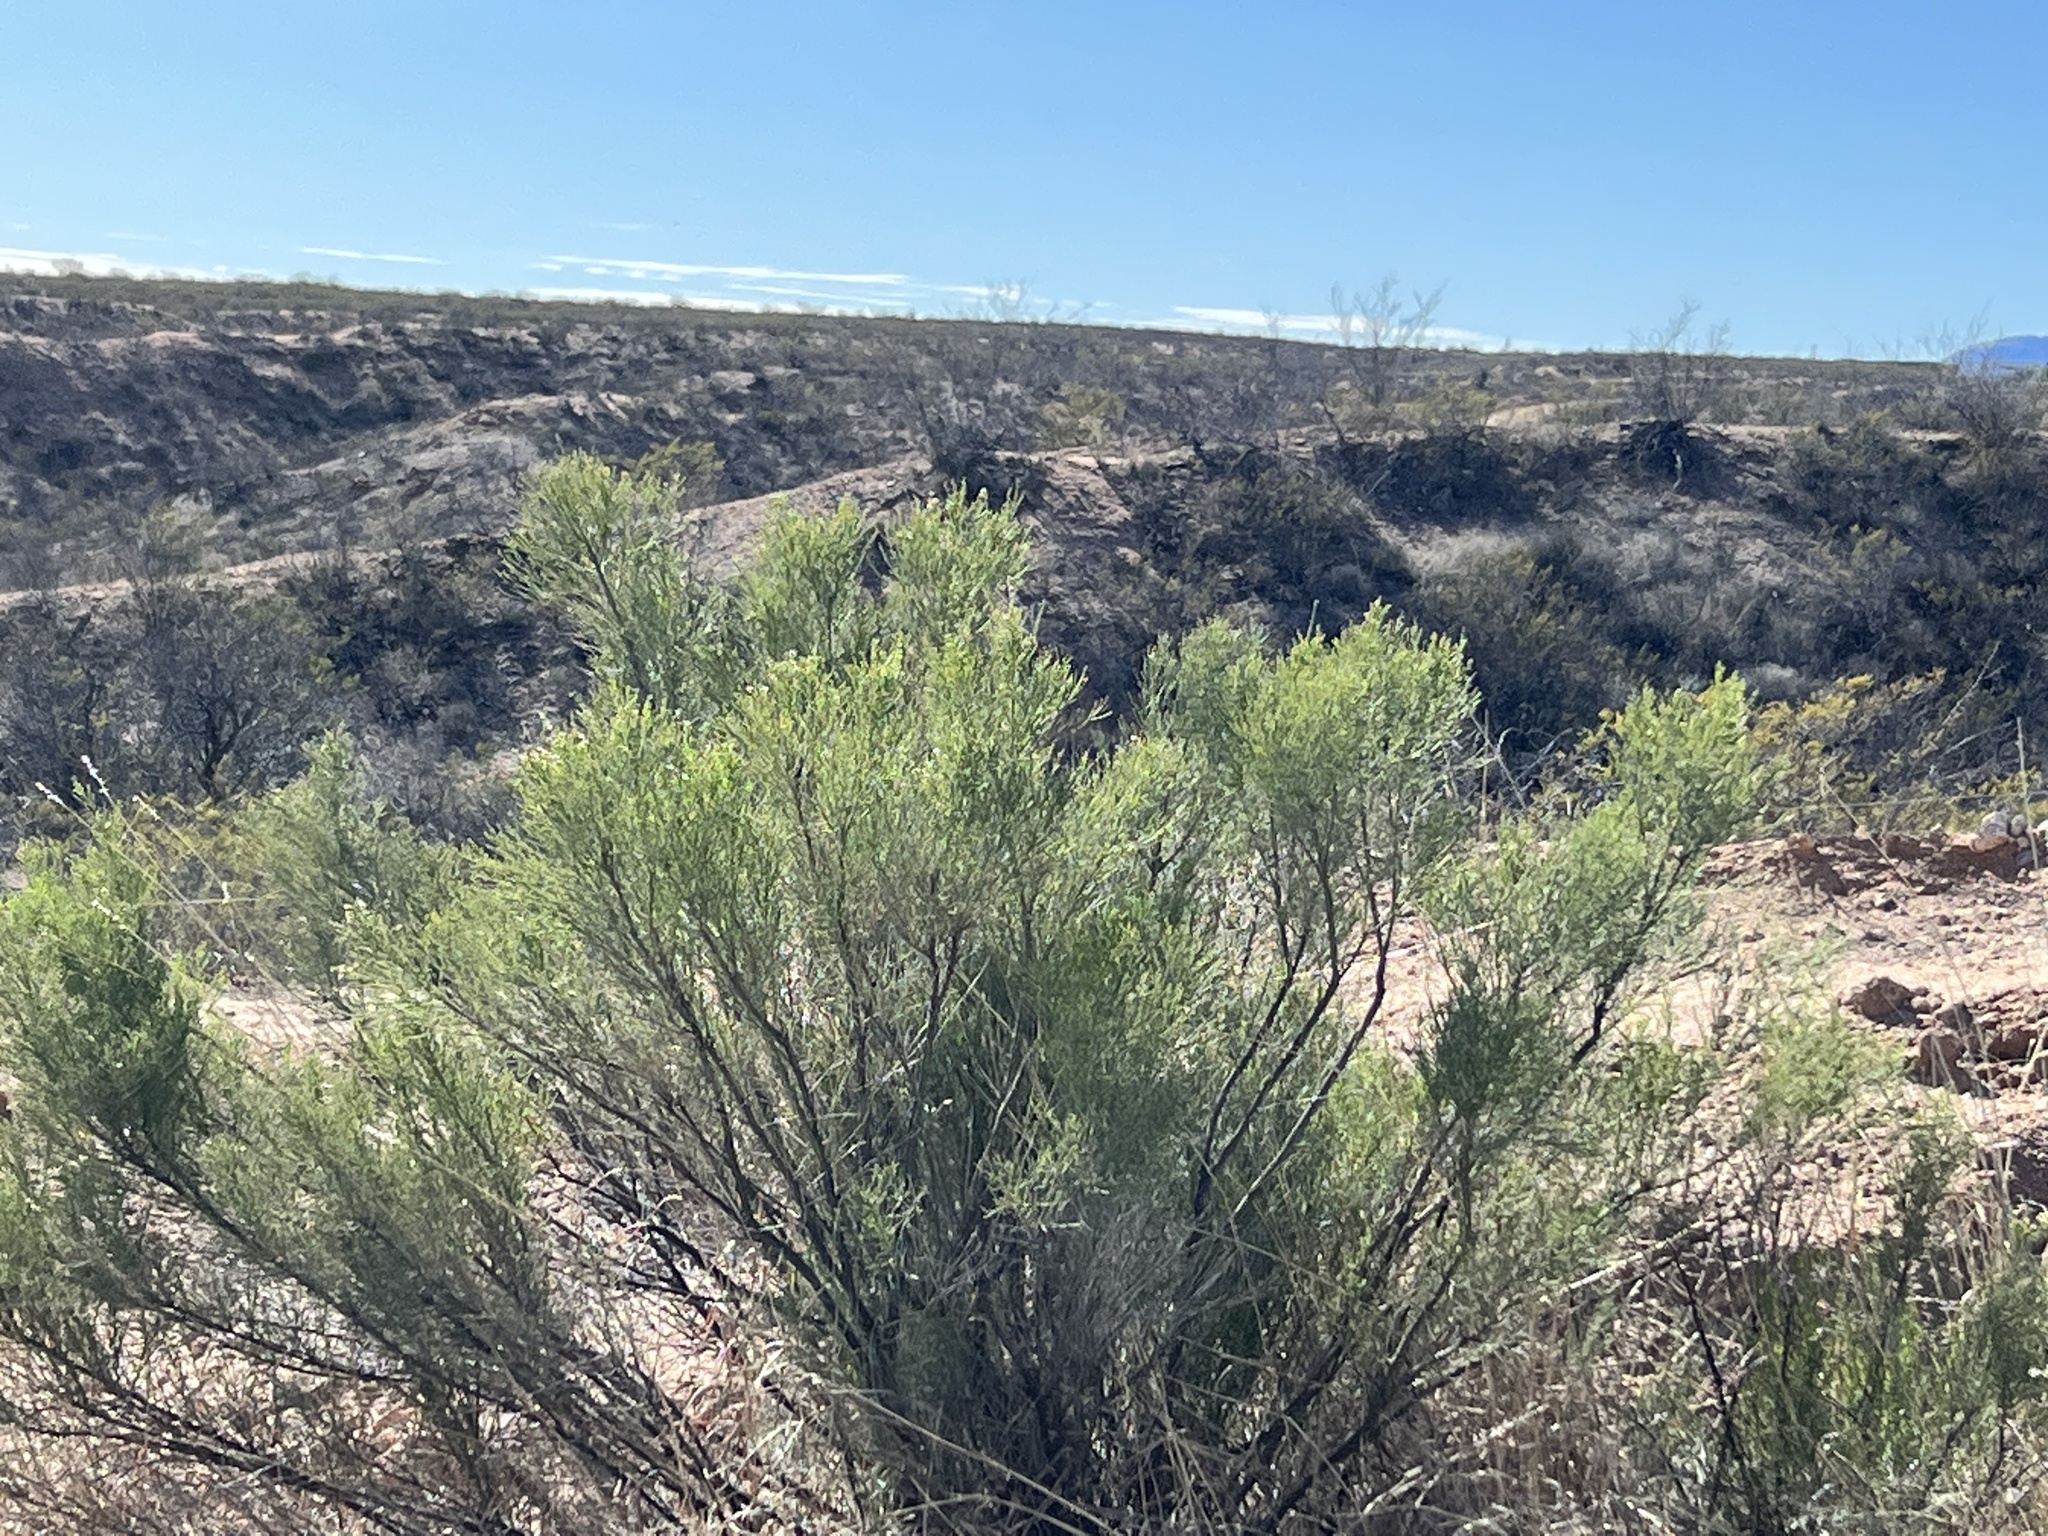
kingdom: Plantae
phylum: Tracheophyta
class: Magnoliopsida
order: Asterales
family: Asteraceae
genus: Baccharis
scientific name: Baccharis sarothroides
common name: Desert-broom
